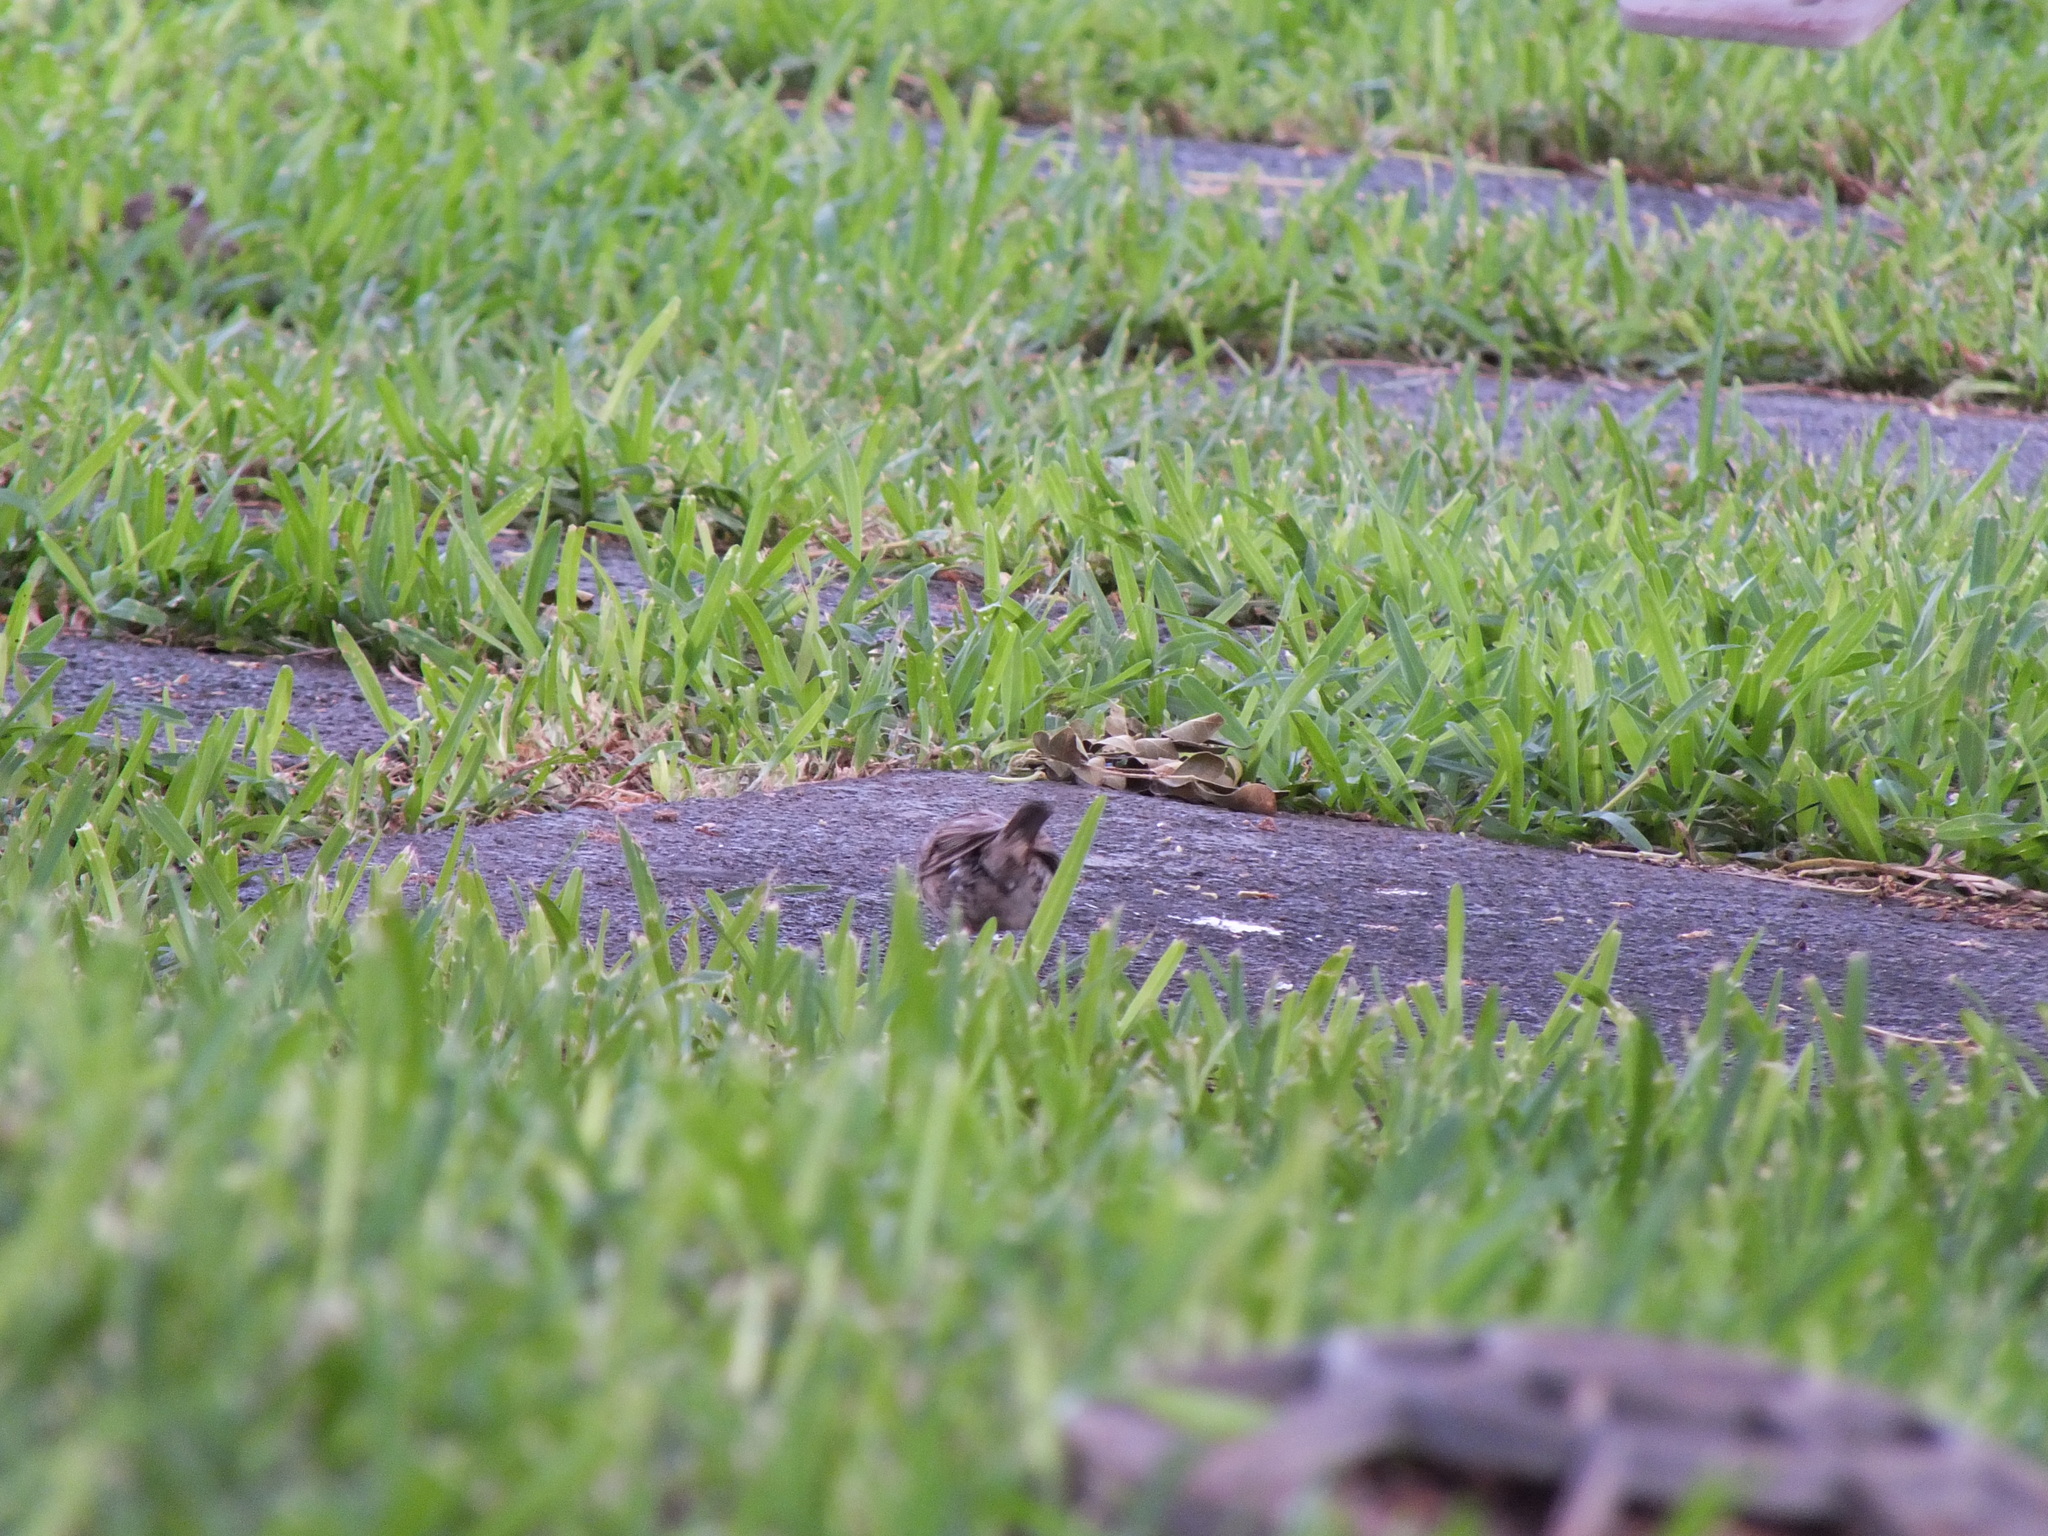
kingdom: Animalia
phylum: Chordata
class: Aves
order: Passeriformes
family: Passeridae
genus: Passer
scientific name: Passer domesticus
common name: House sparrow
